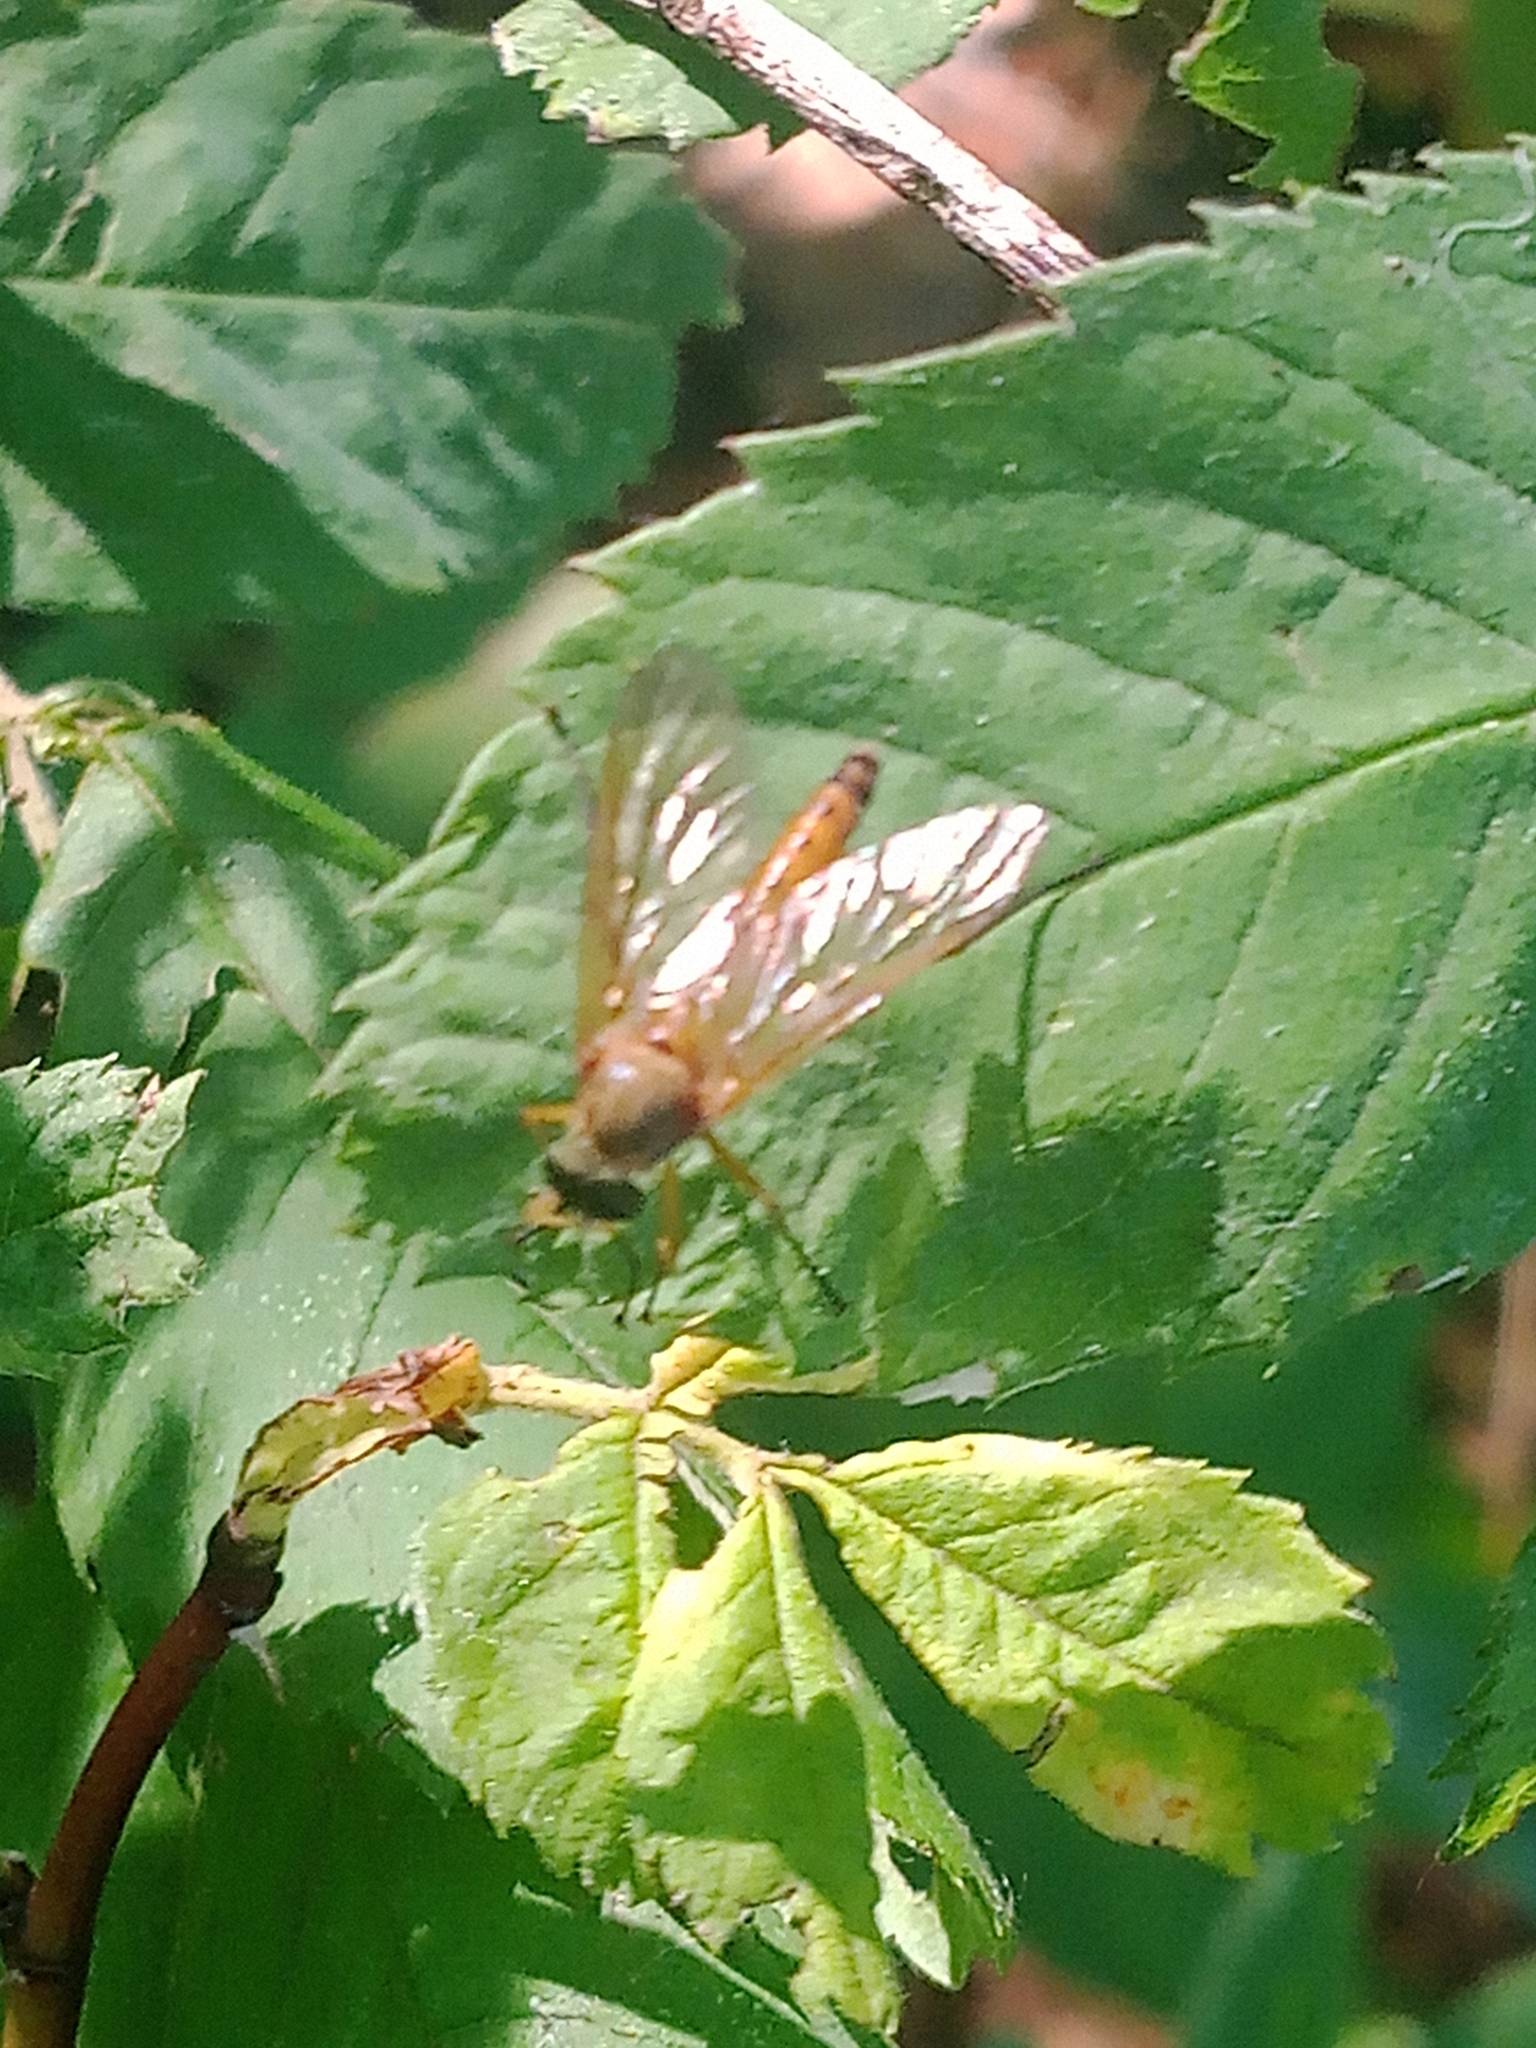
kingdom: Animalia
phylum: Arthropoda
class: Insecta
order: Diptera
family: Rhagionidae
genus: Rhagio
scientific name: Rhagio tringaria
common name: Marsh snipefly
